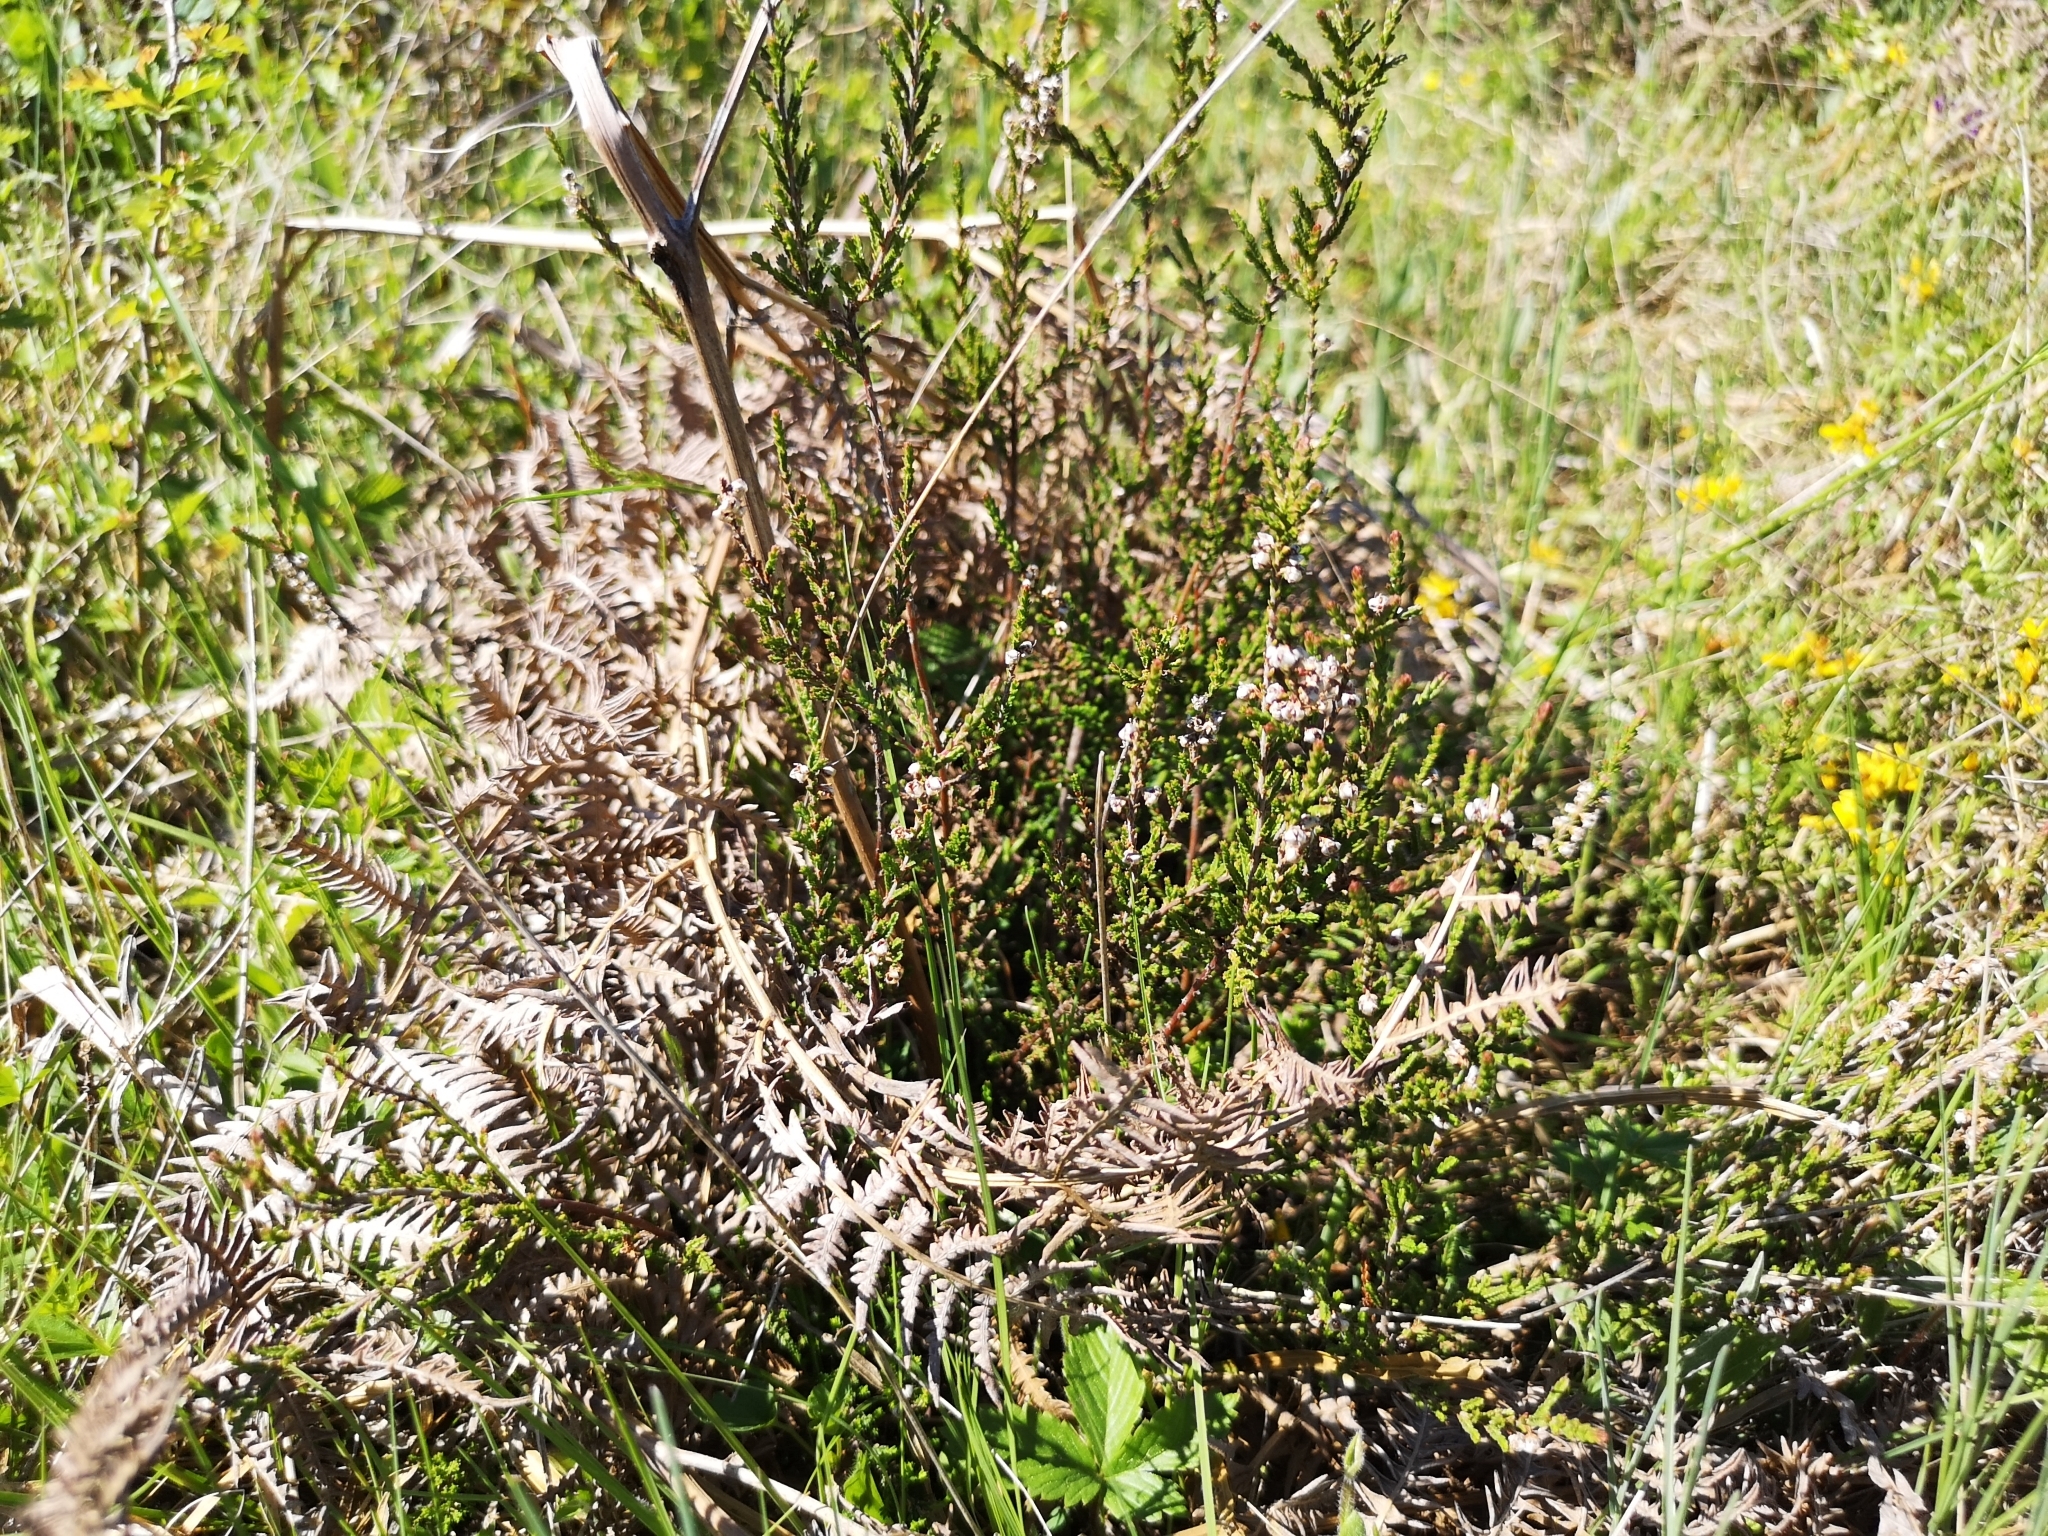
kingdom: Plantae
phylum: Tracheophyta
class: Magnoliopsida
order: Ericales
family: Ericaceae
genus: Calluna
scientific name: Calluna vulgaris
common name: Heather
